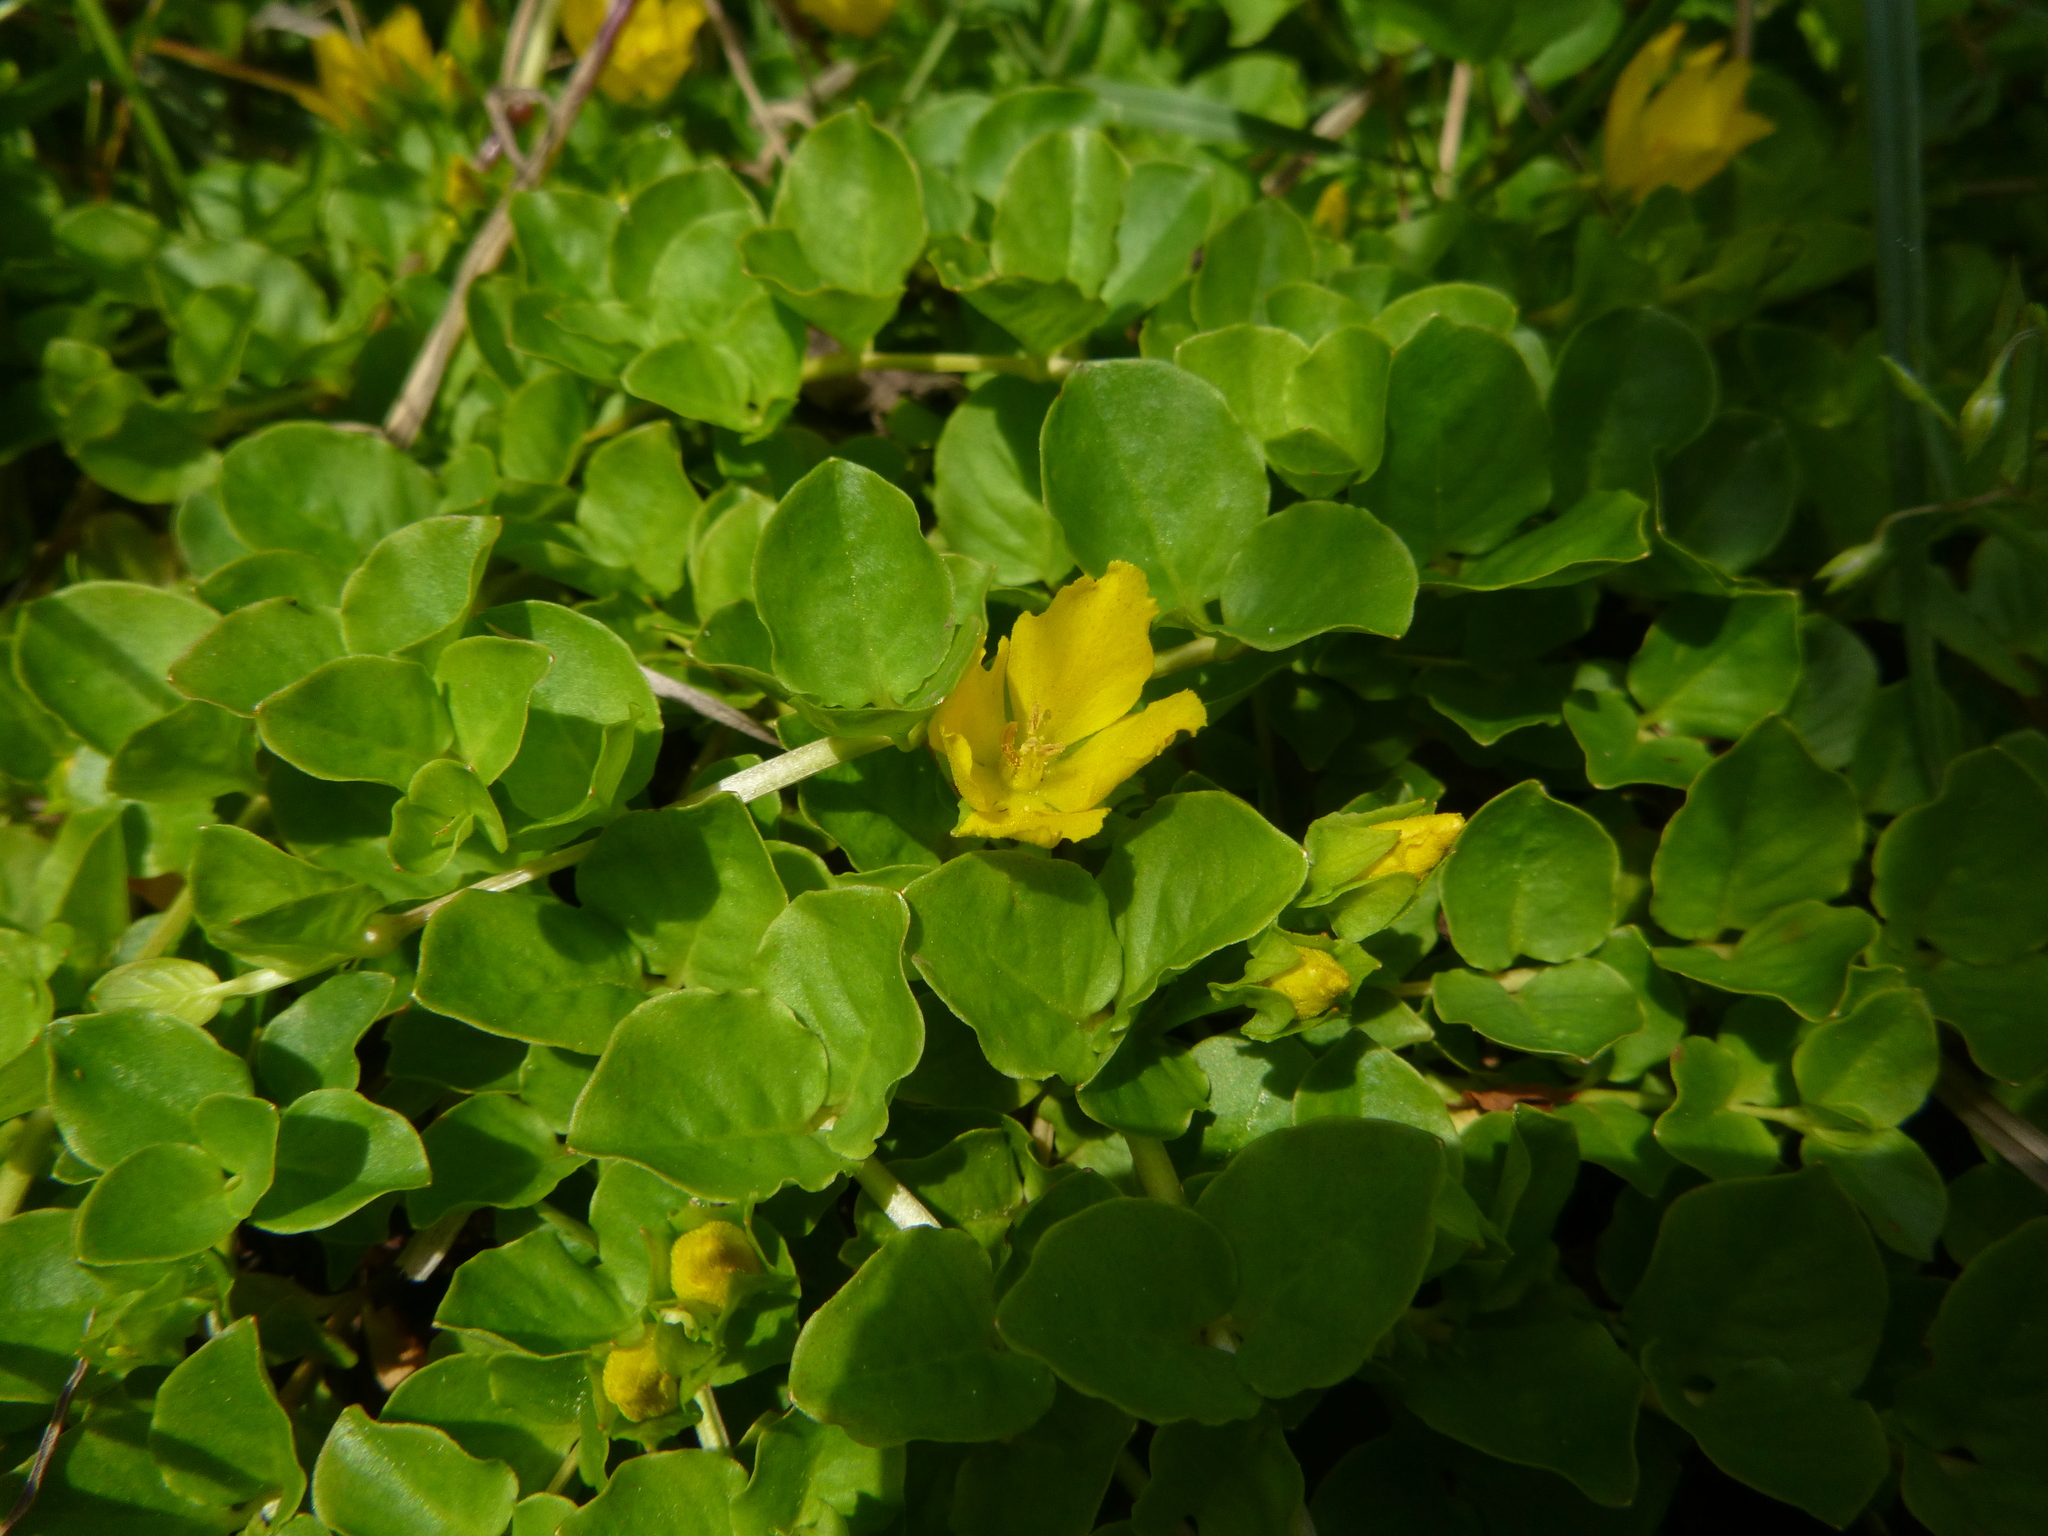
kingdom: Plantae
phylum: Tracheophyta
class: Magnoliopsida
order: Ericales
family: Primulaceae
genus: Lysimachia
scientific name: Lysimachia nummularia
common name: Moneywort
